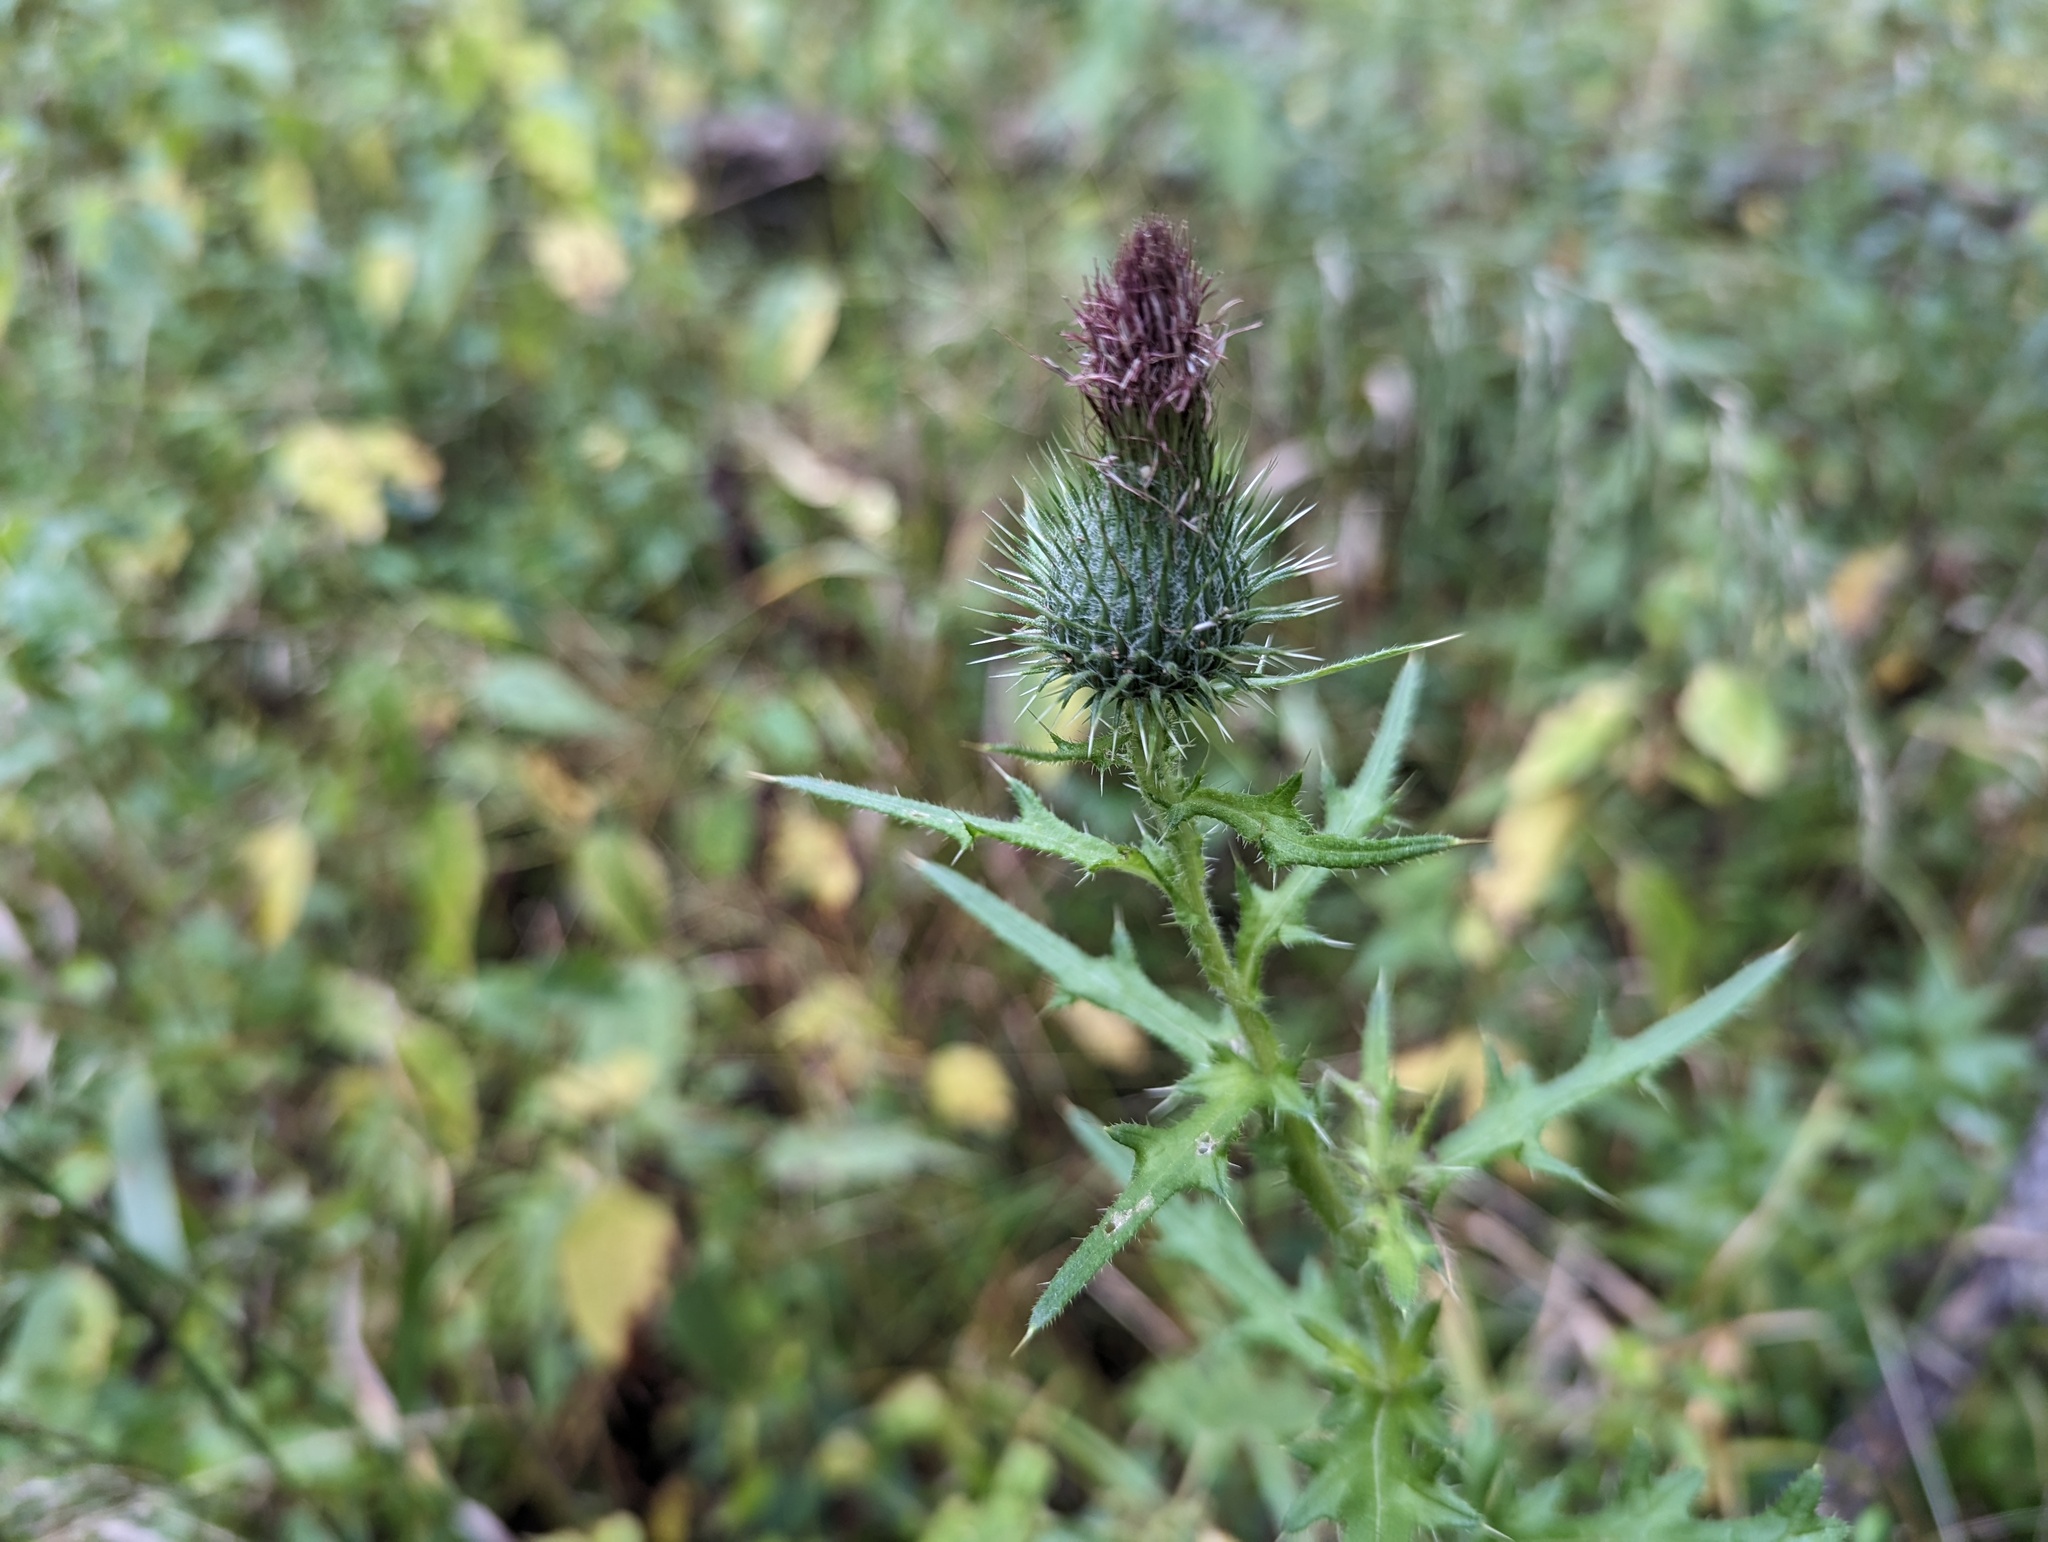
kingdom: Plantae
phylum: Tracheophyta
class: Magnoliopsida
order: Asterales
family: Asteraceae
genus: Cirsium
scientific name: Cirsium vulgare
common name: Bull thistle
